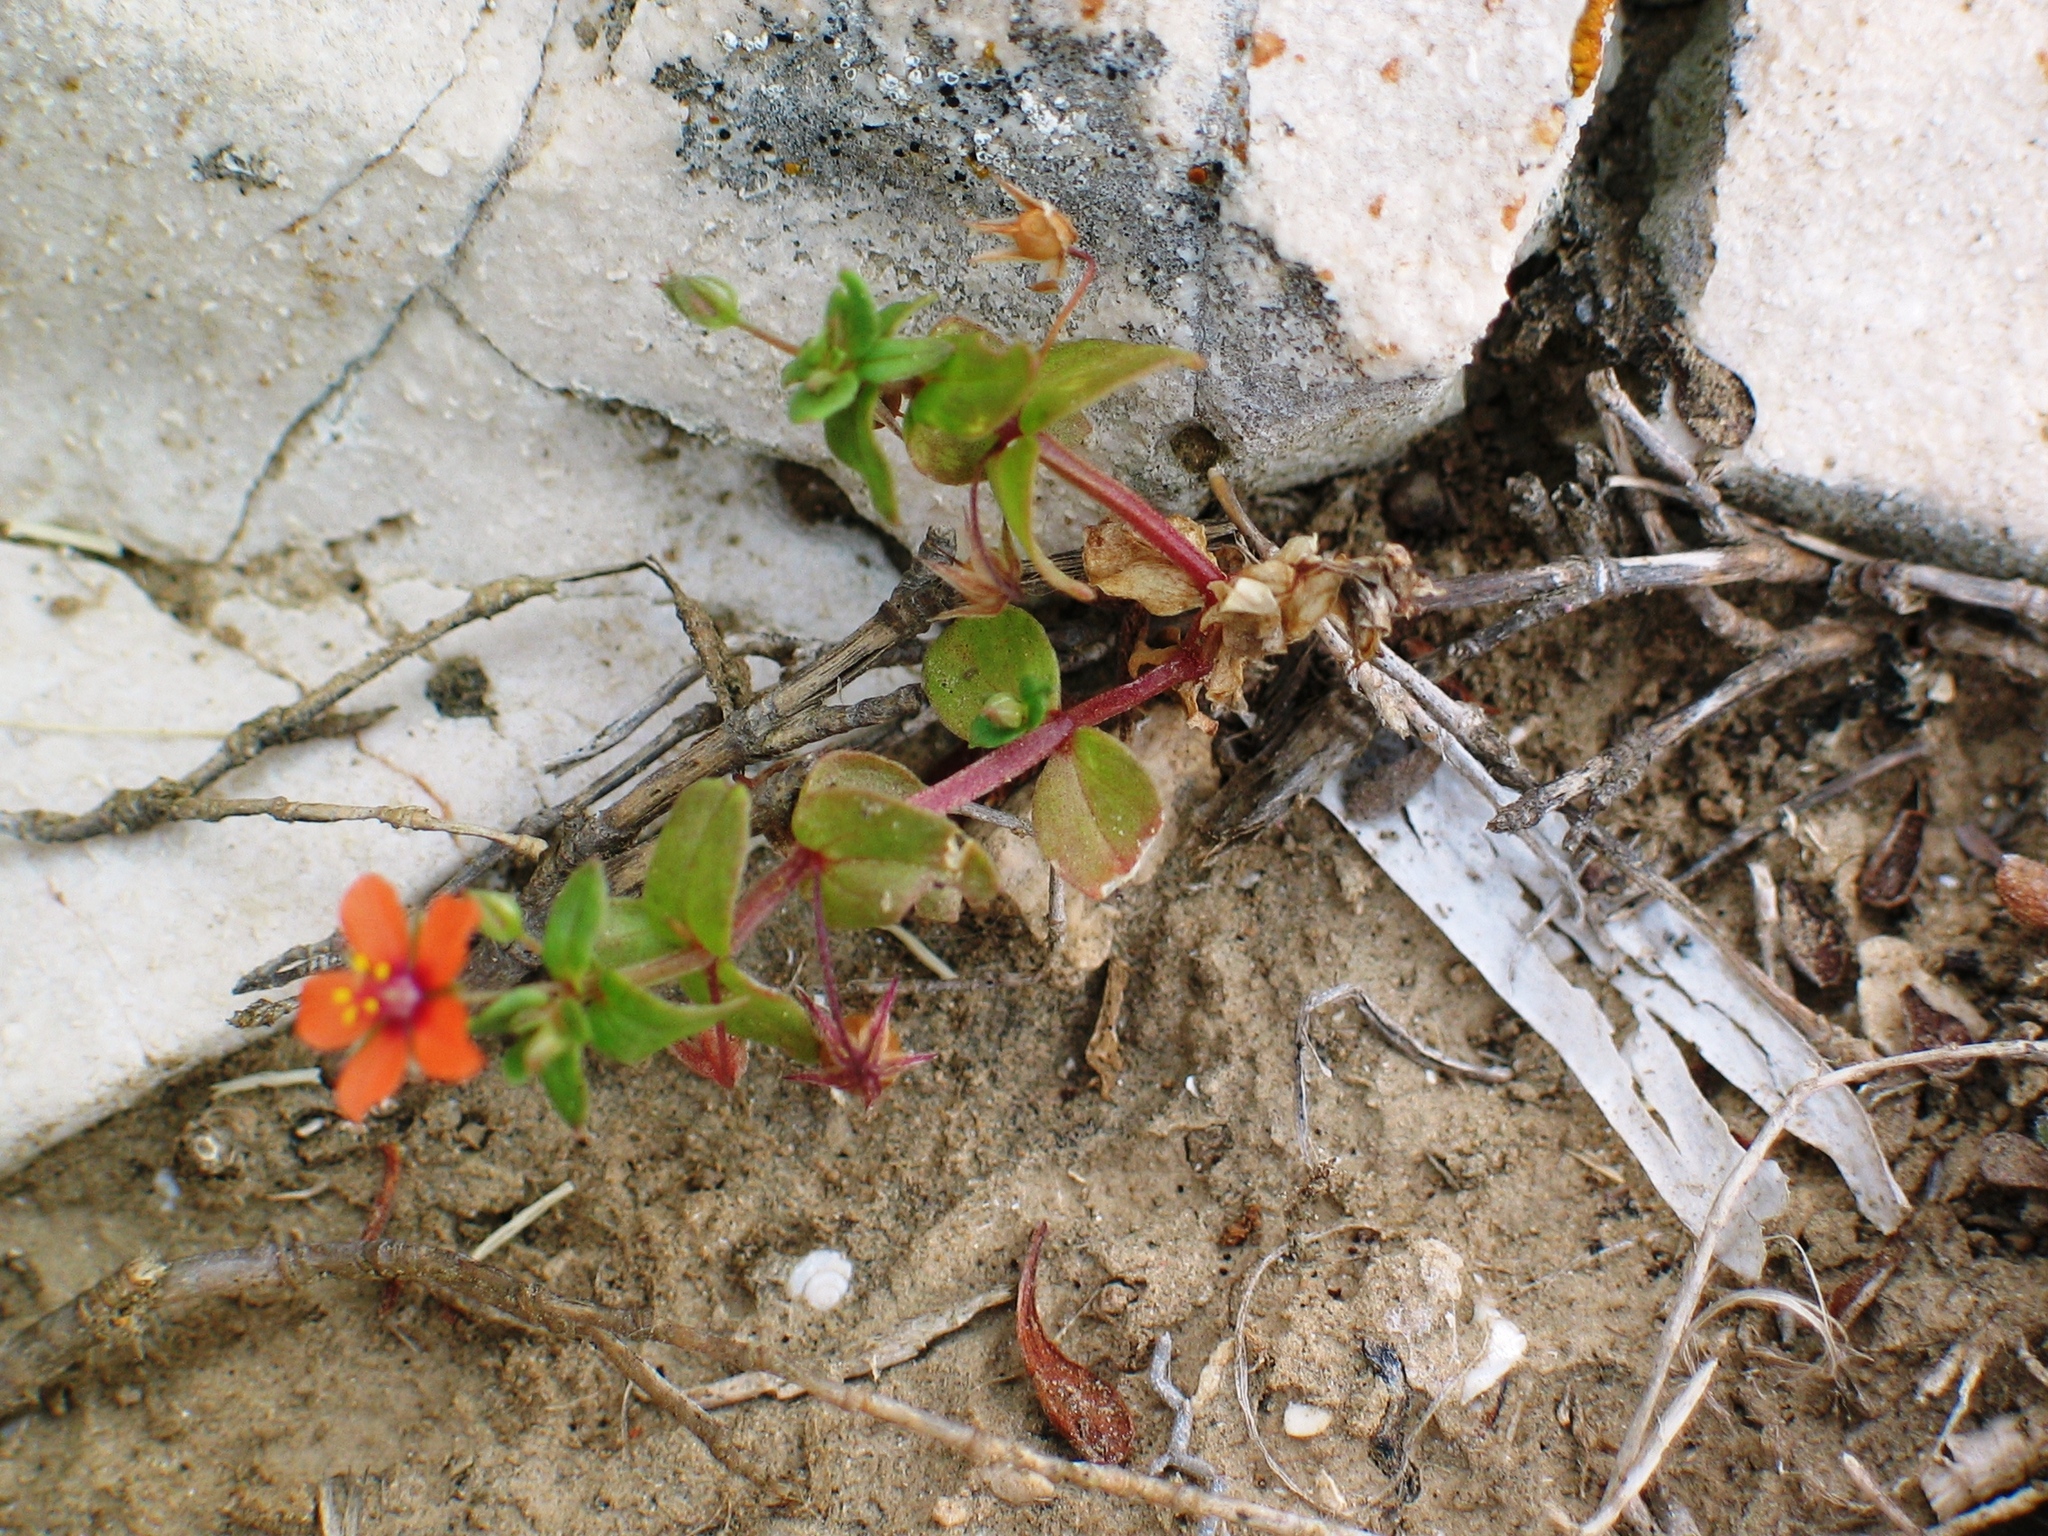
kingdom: Plantae
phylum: Tracheophyta
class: Magnoliopsida
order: Ericales
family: Primulaceae
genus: Lysimachia
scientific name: Lysimachia arvensis
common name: Scarlet pimpernel
